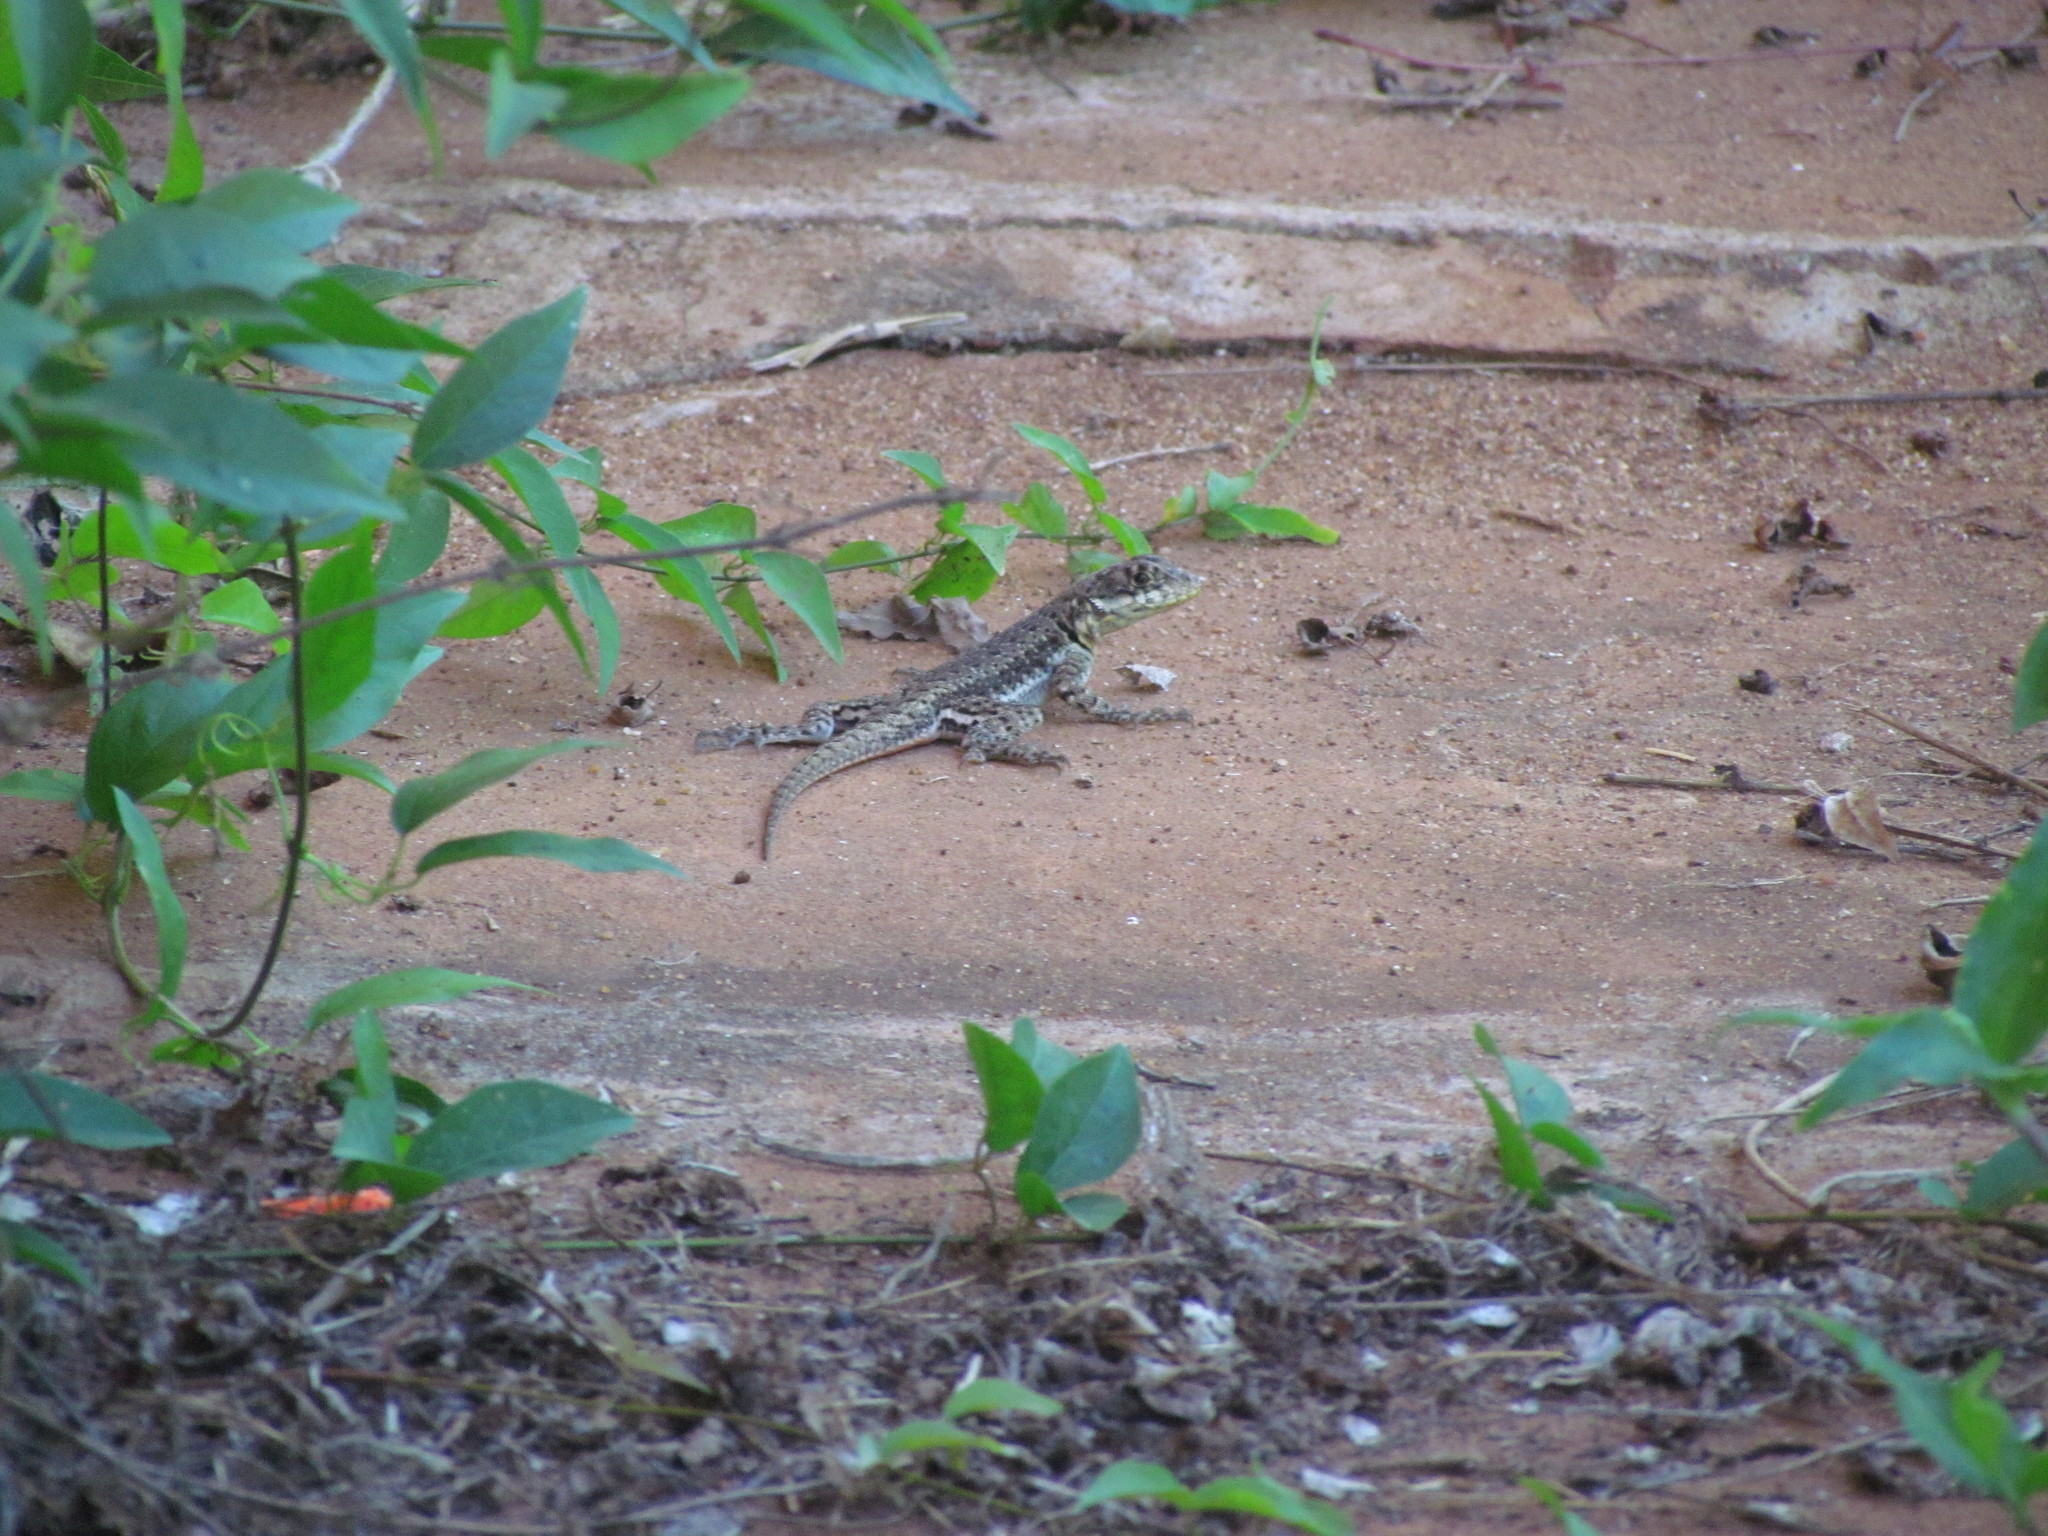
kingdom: Animalia
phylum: Chordata
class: Squamata
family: Tropiduridae
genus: Tropidurus
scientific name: Tropidurus catalanensis
